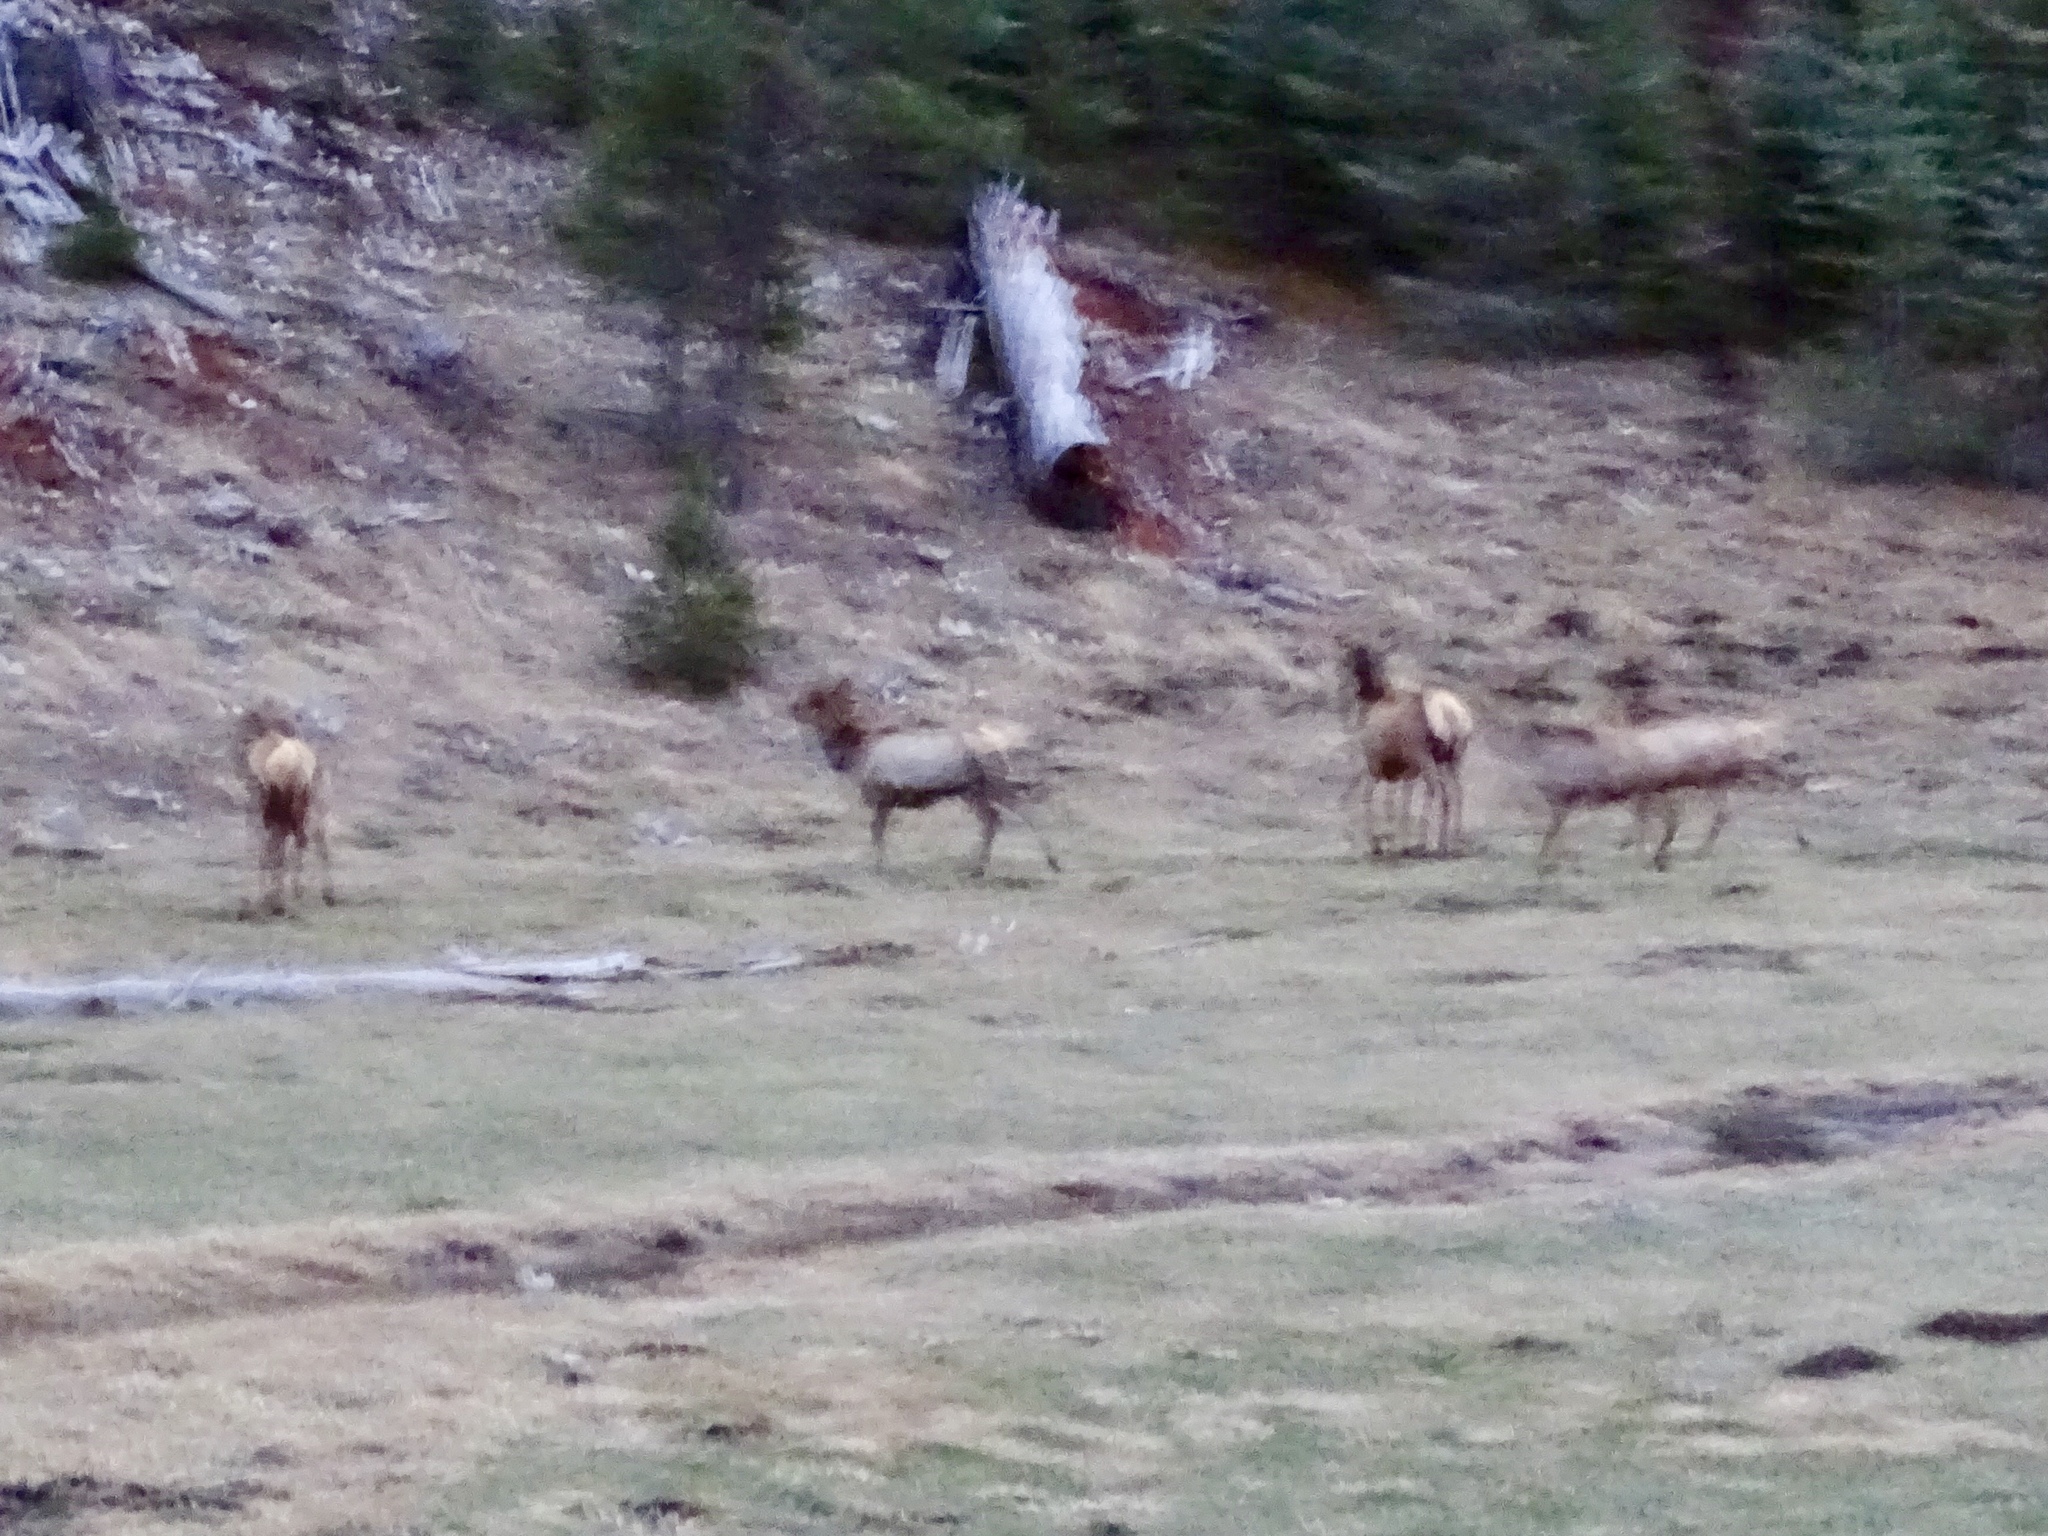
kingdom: Animalia
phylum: Chordata
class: Mammalia
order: Artiodactyla
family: Cervidae
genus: Cervus
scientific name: Cervus elaphus
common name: Red deer
